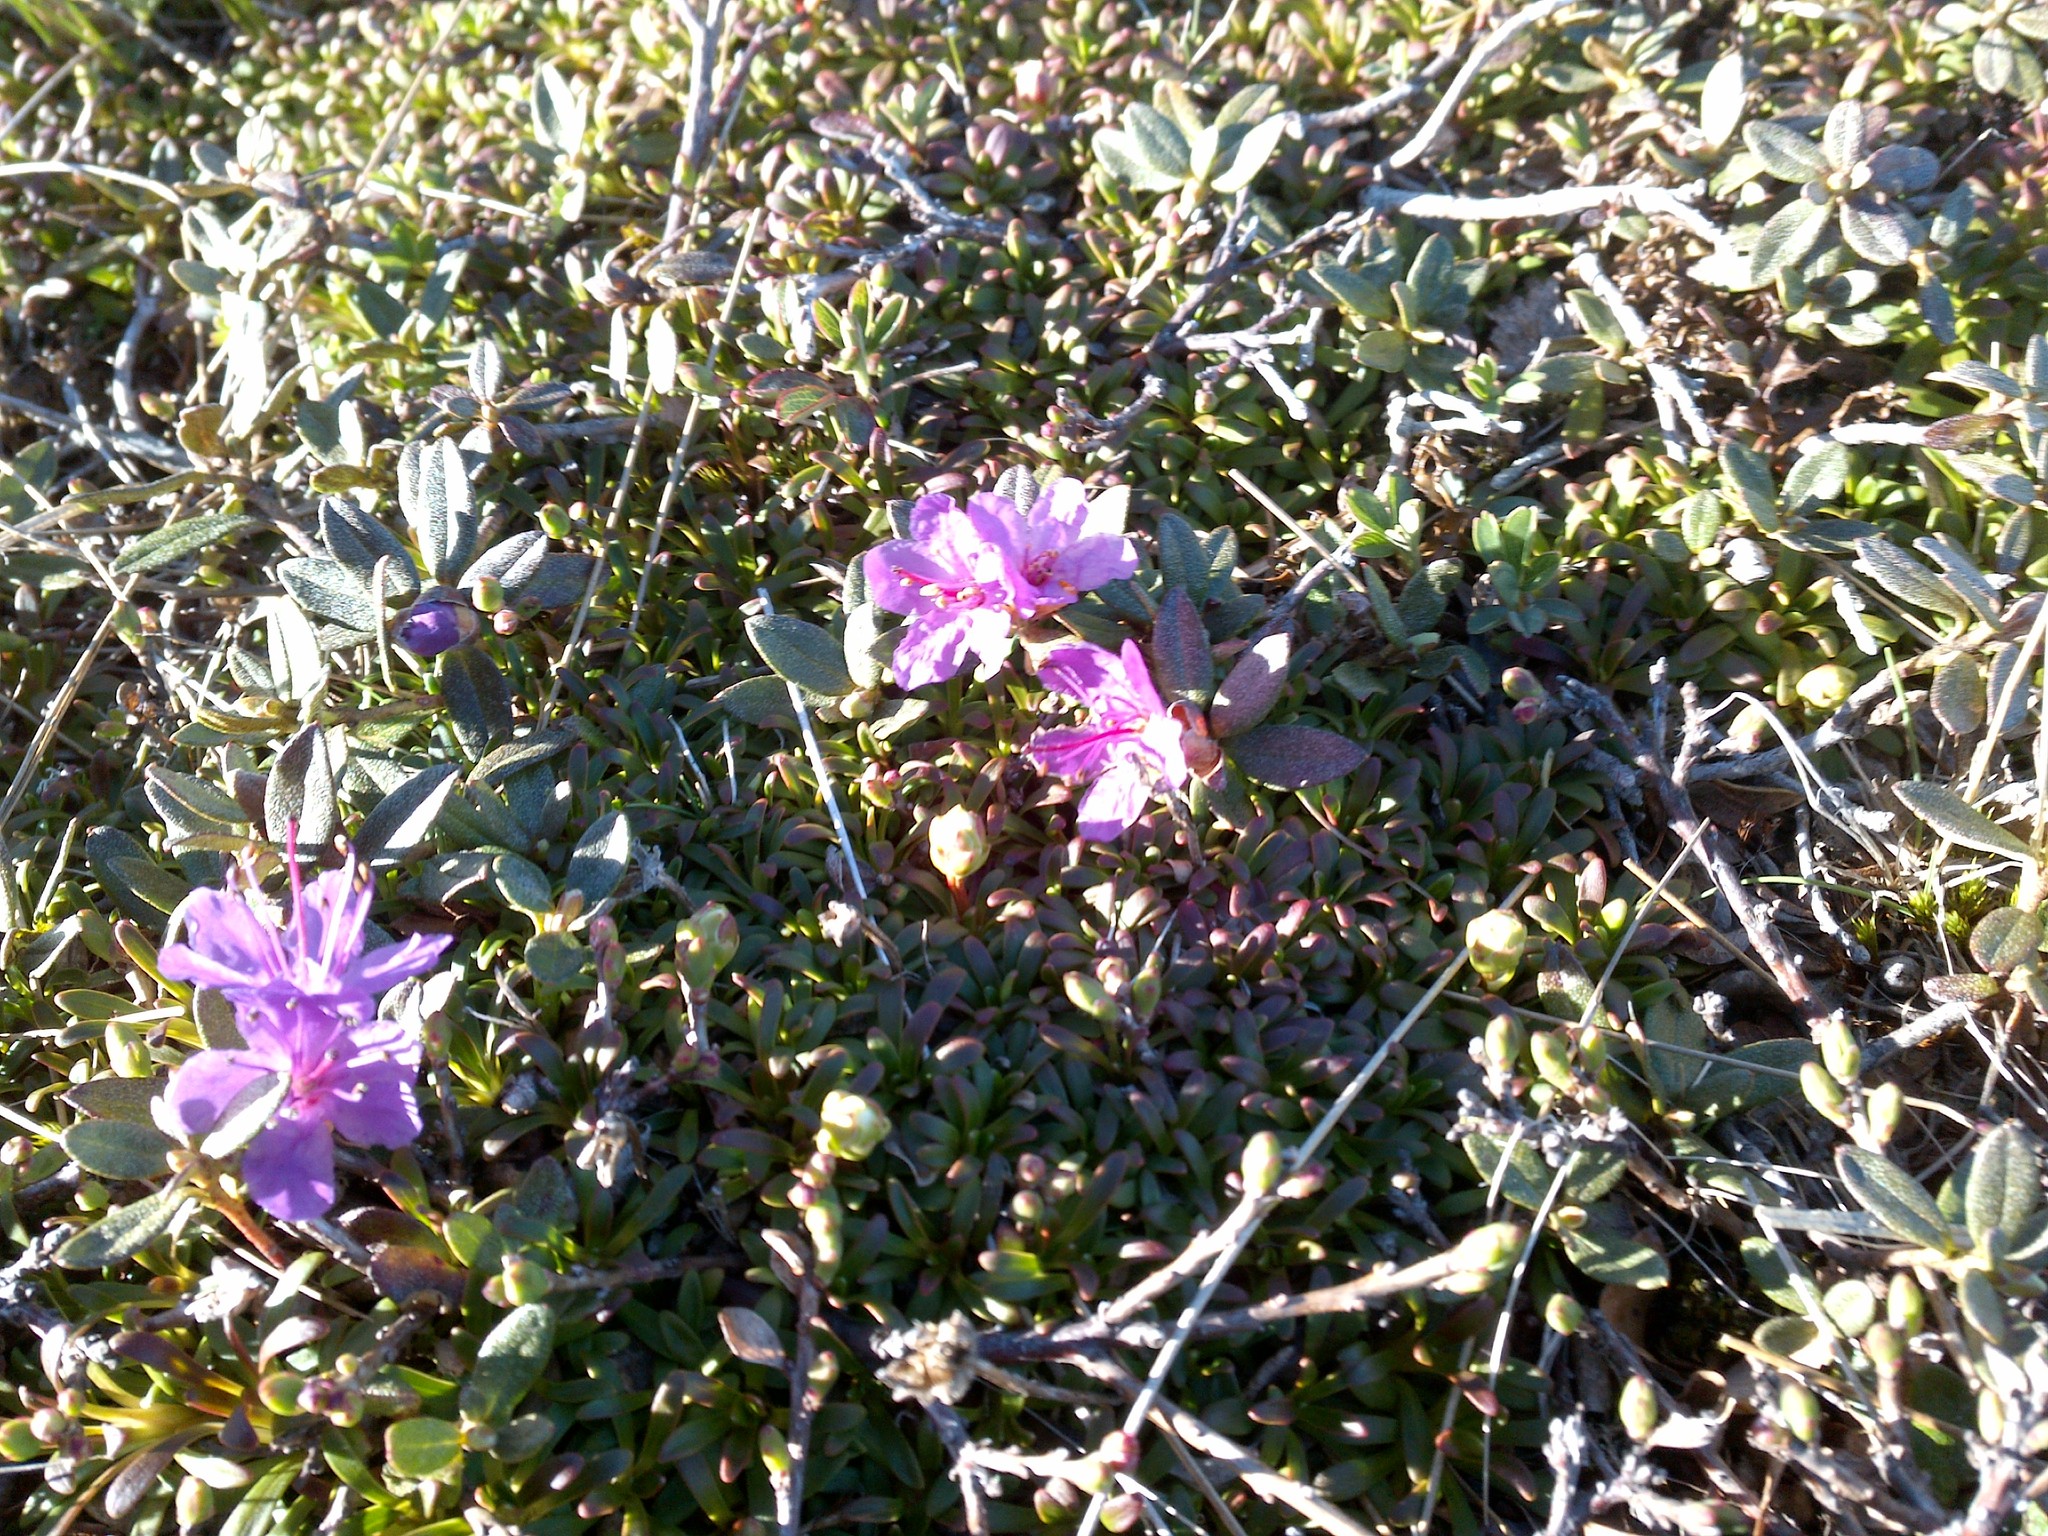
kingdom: Plantae
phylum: Tracheophyta
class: Magnoliopsida
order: Ericales
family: Ericaceae
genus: Rhododendron
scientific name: Rhododendron lapponicum
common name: Lapland rhododendron
